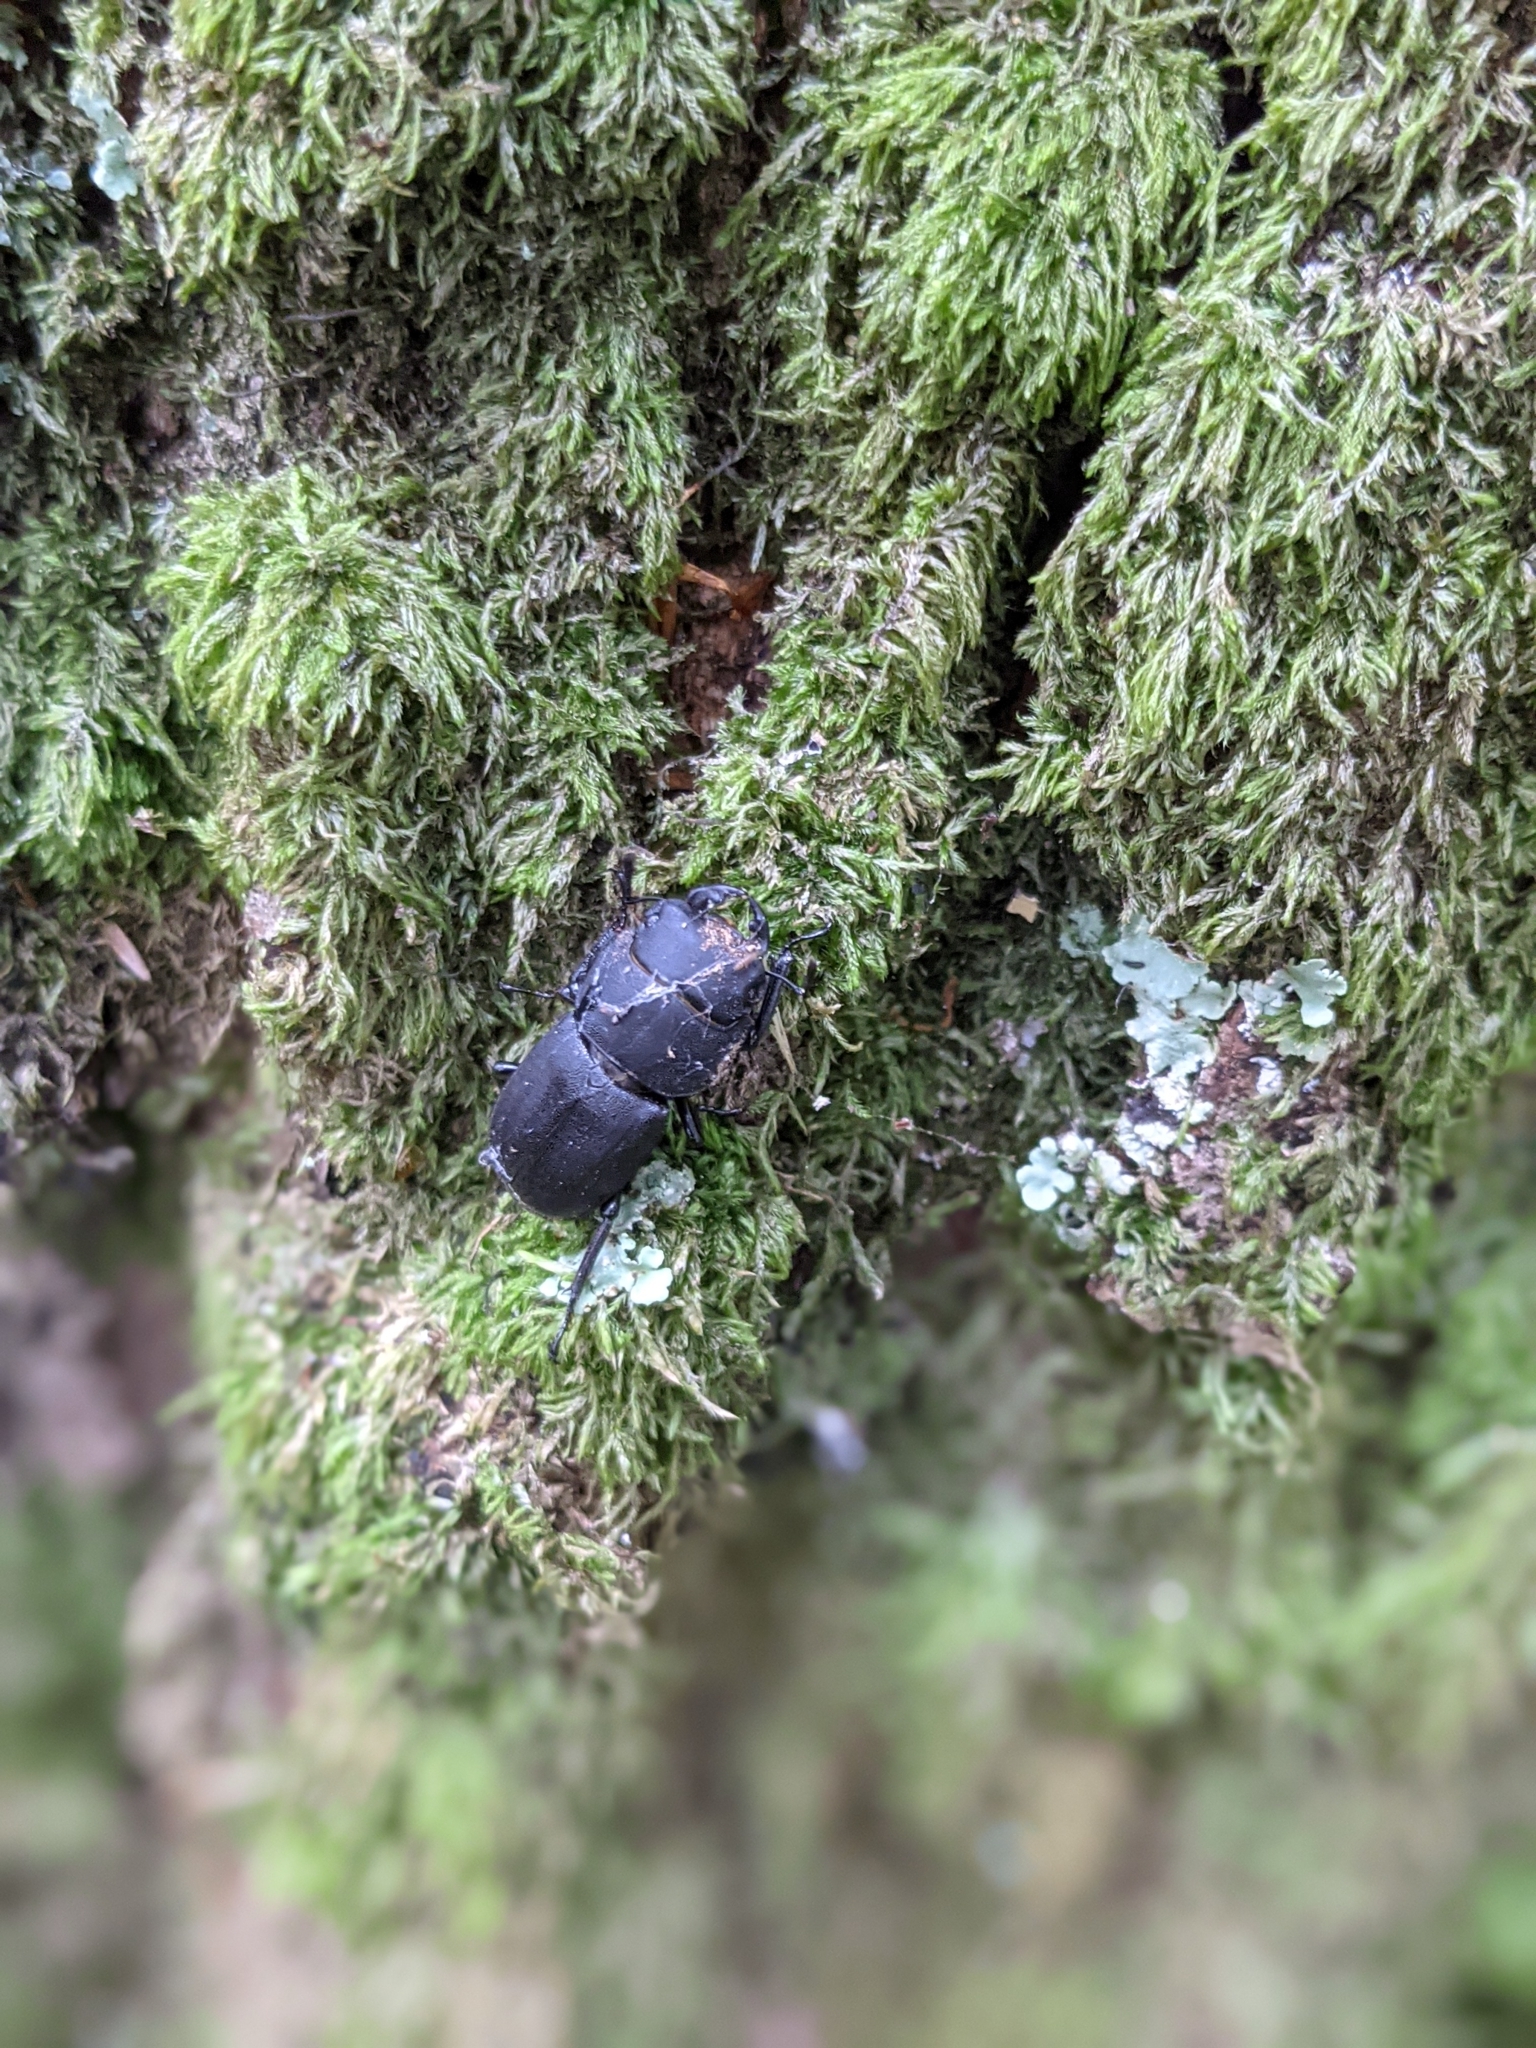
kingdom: Animalia
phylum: Arthropoda
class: Insecta
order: Coleoptera
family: Lucanidae
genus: Dorcus
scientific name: Dorcus parallelipipedus
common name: Lesser stag beetle
